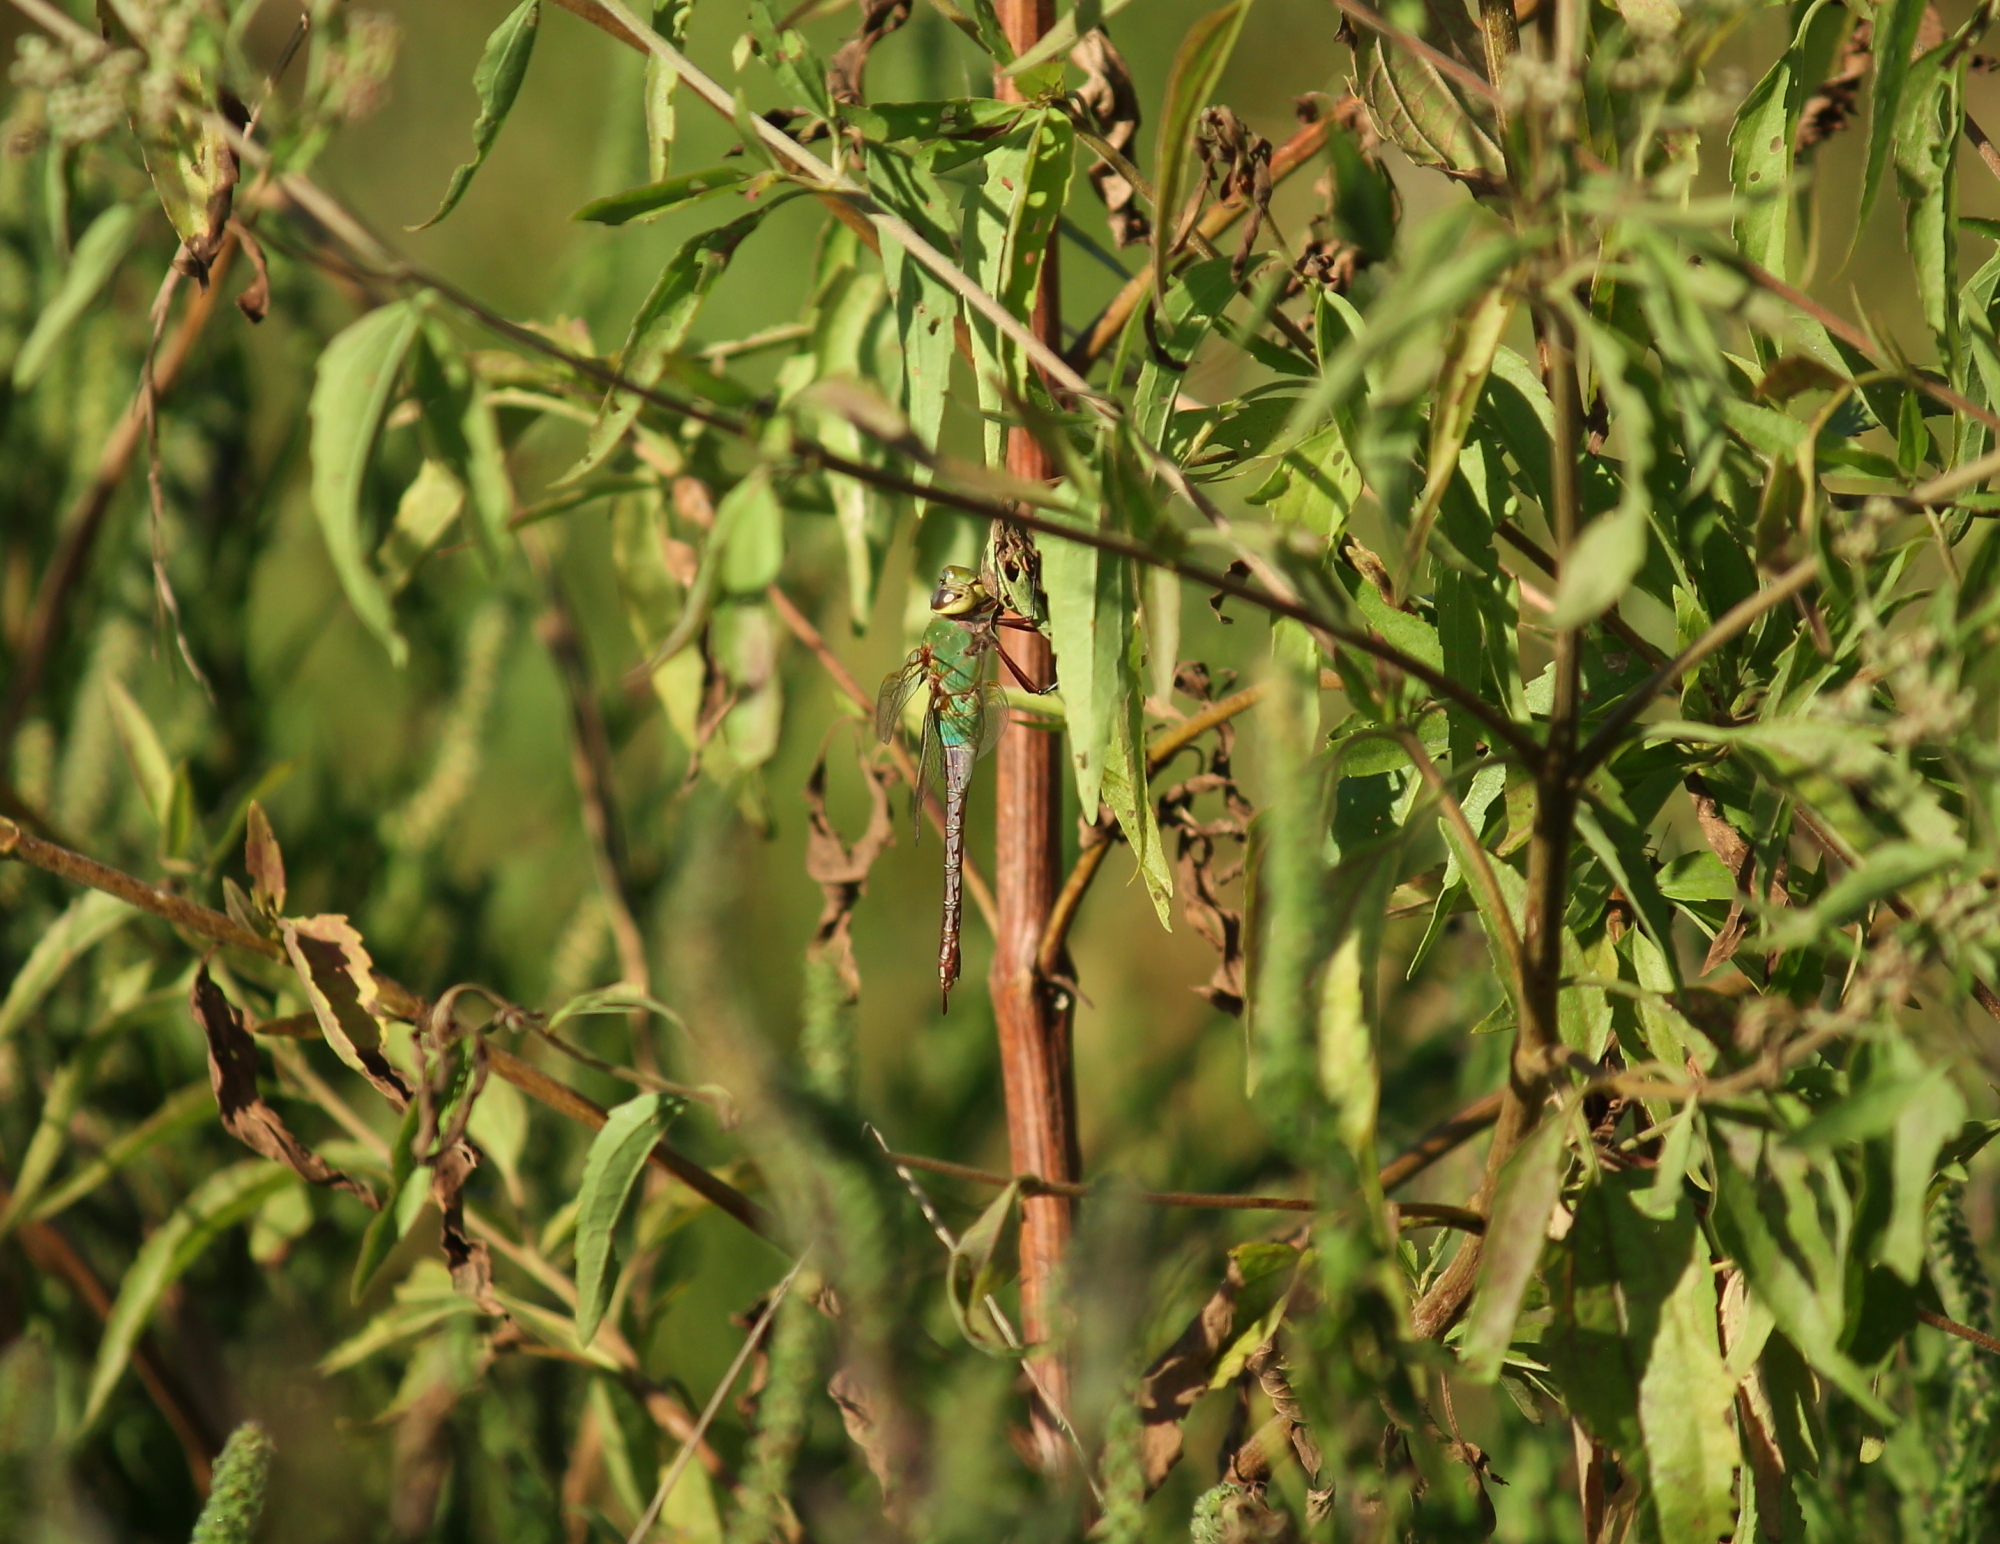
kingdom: Animalia
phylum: Arthropoda
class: Insecta
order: Odonata
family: Aeshnidae
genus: Anax
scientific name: Anax junius
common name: Common green darner
